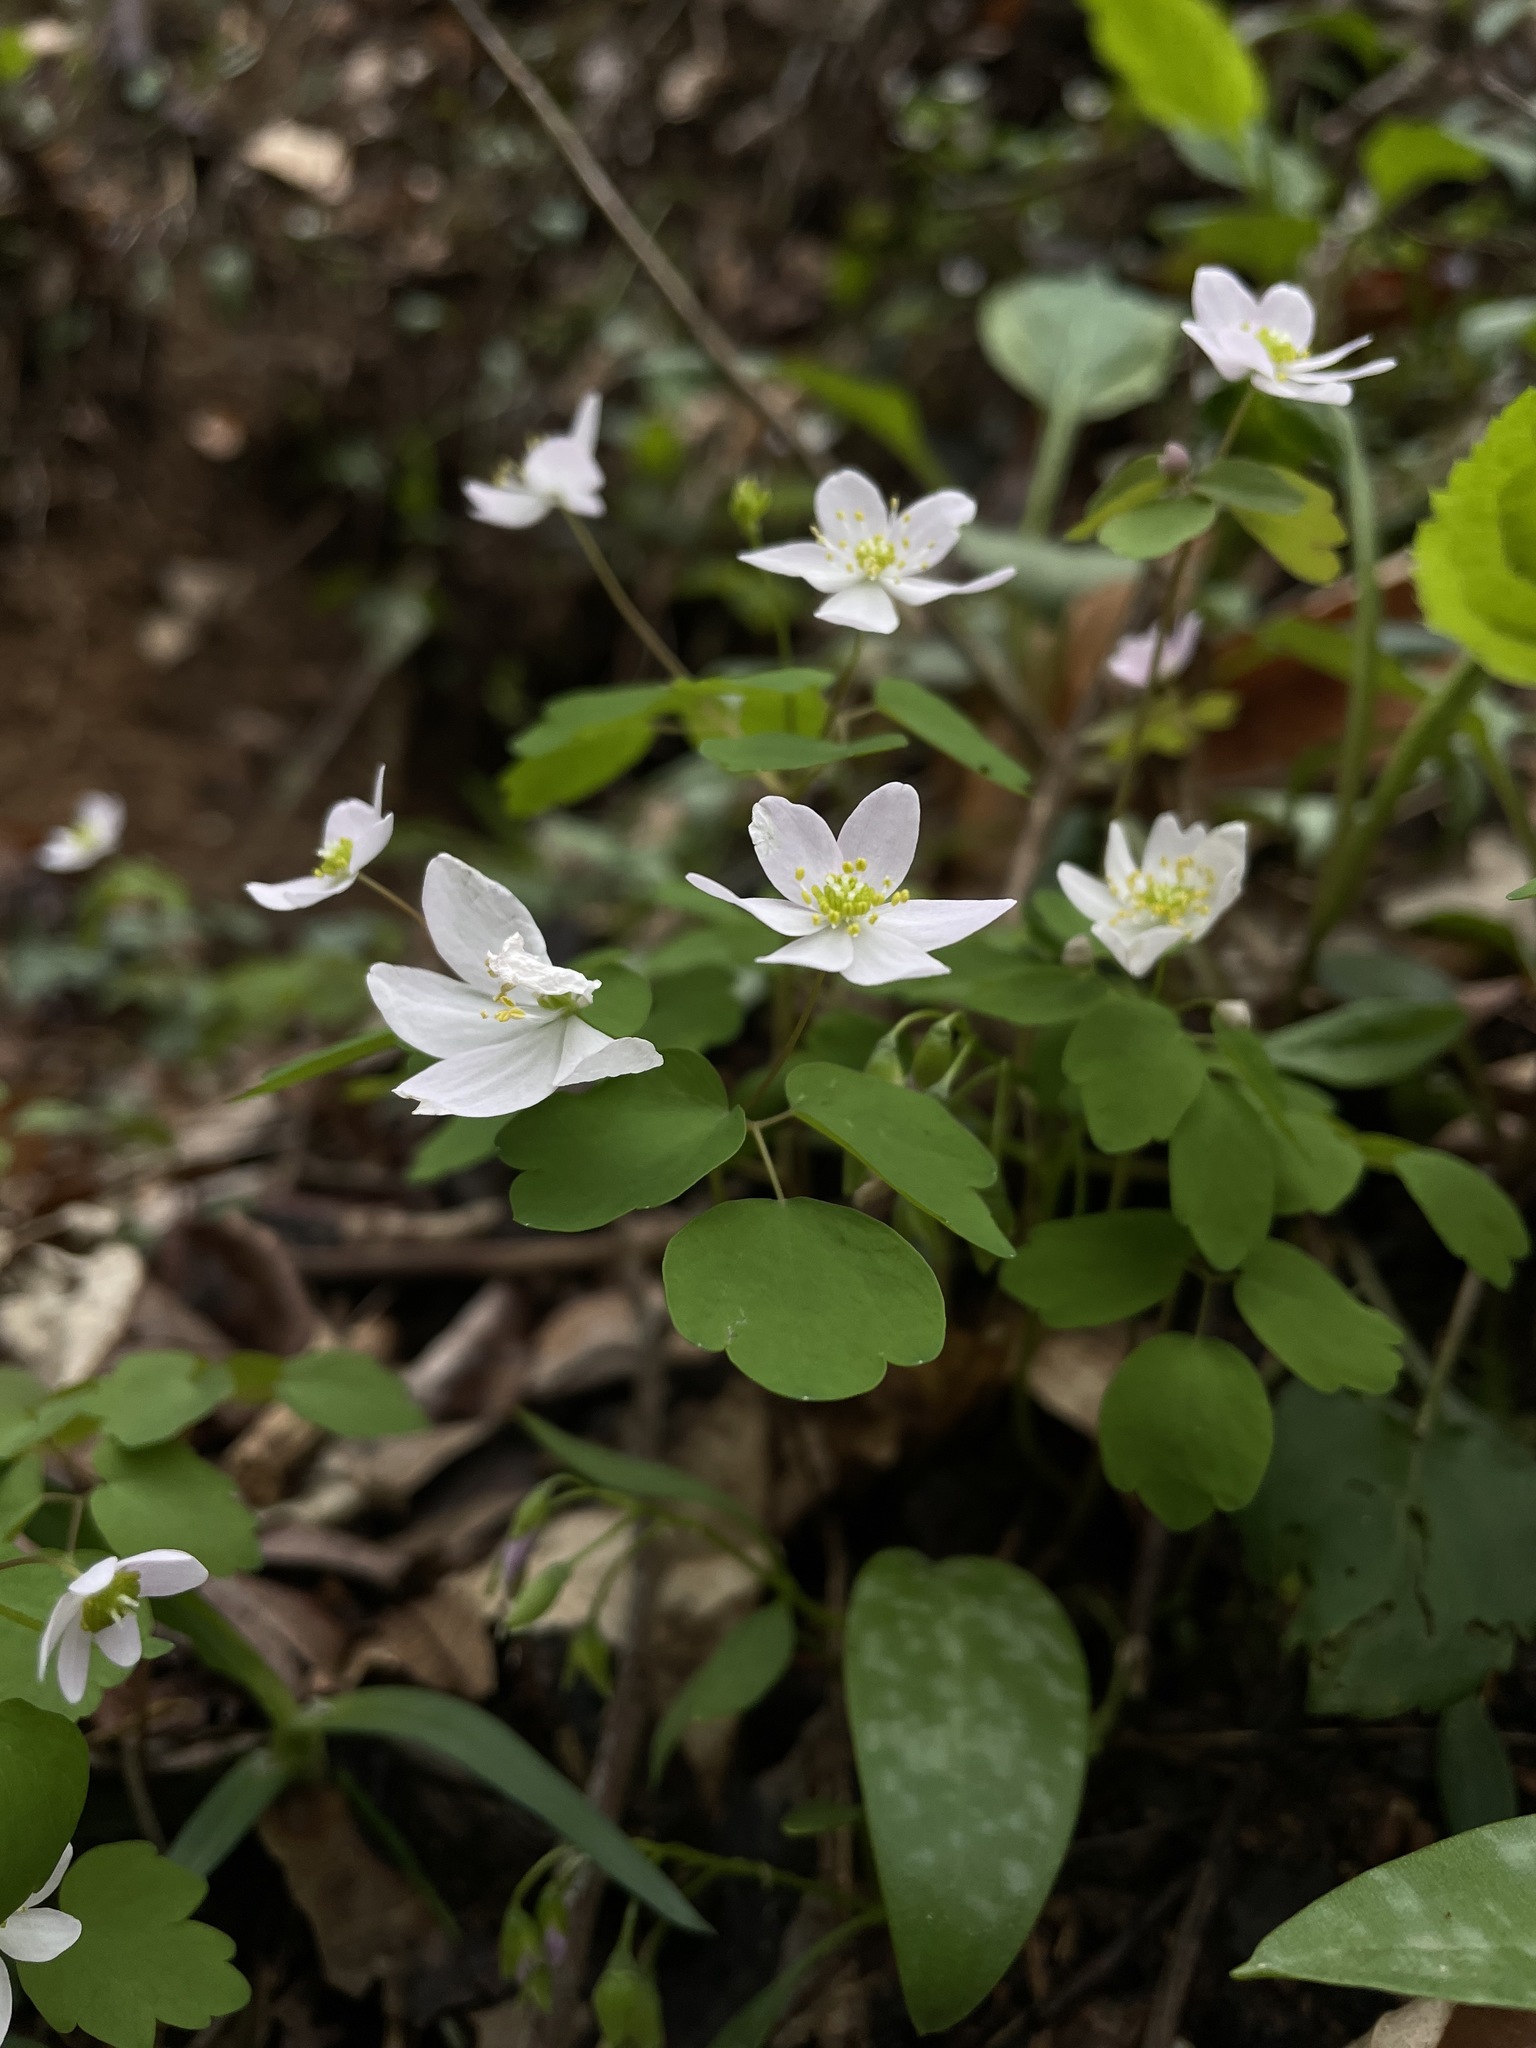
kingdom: Plantae
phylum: Tracheophyta
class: Magnoliopsida
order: Ranunculales
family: Ranunculaceae
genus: Thalictrum
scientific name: Thalictrum thalictroides
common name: Rue-anemone
